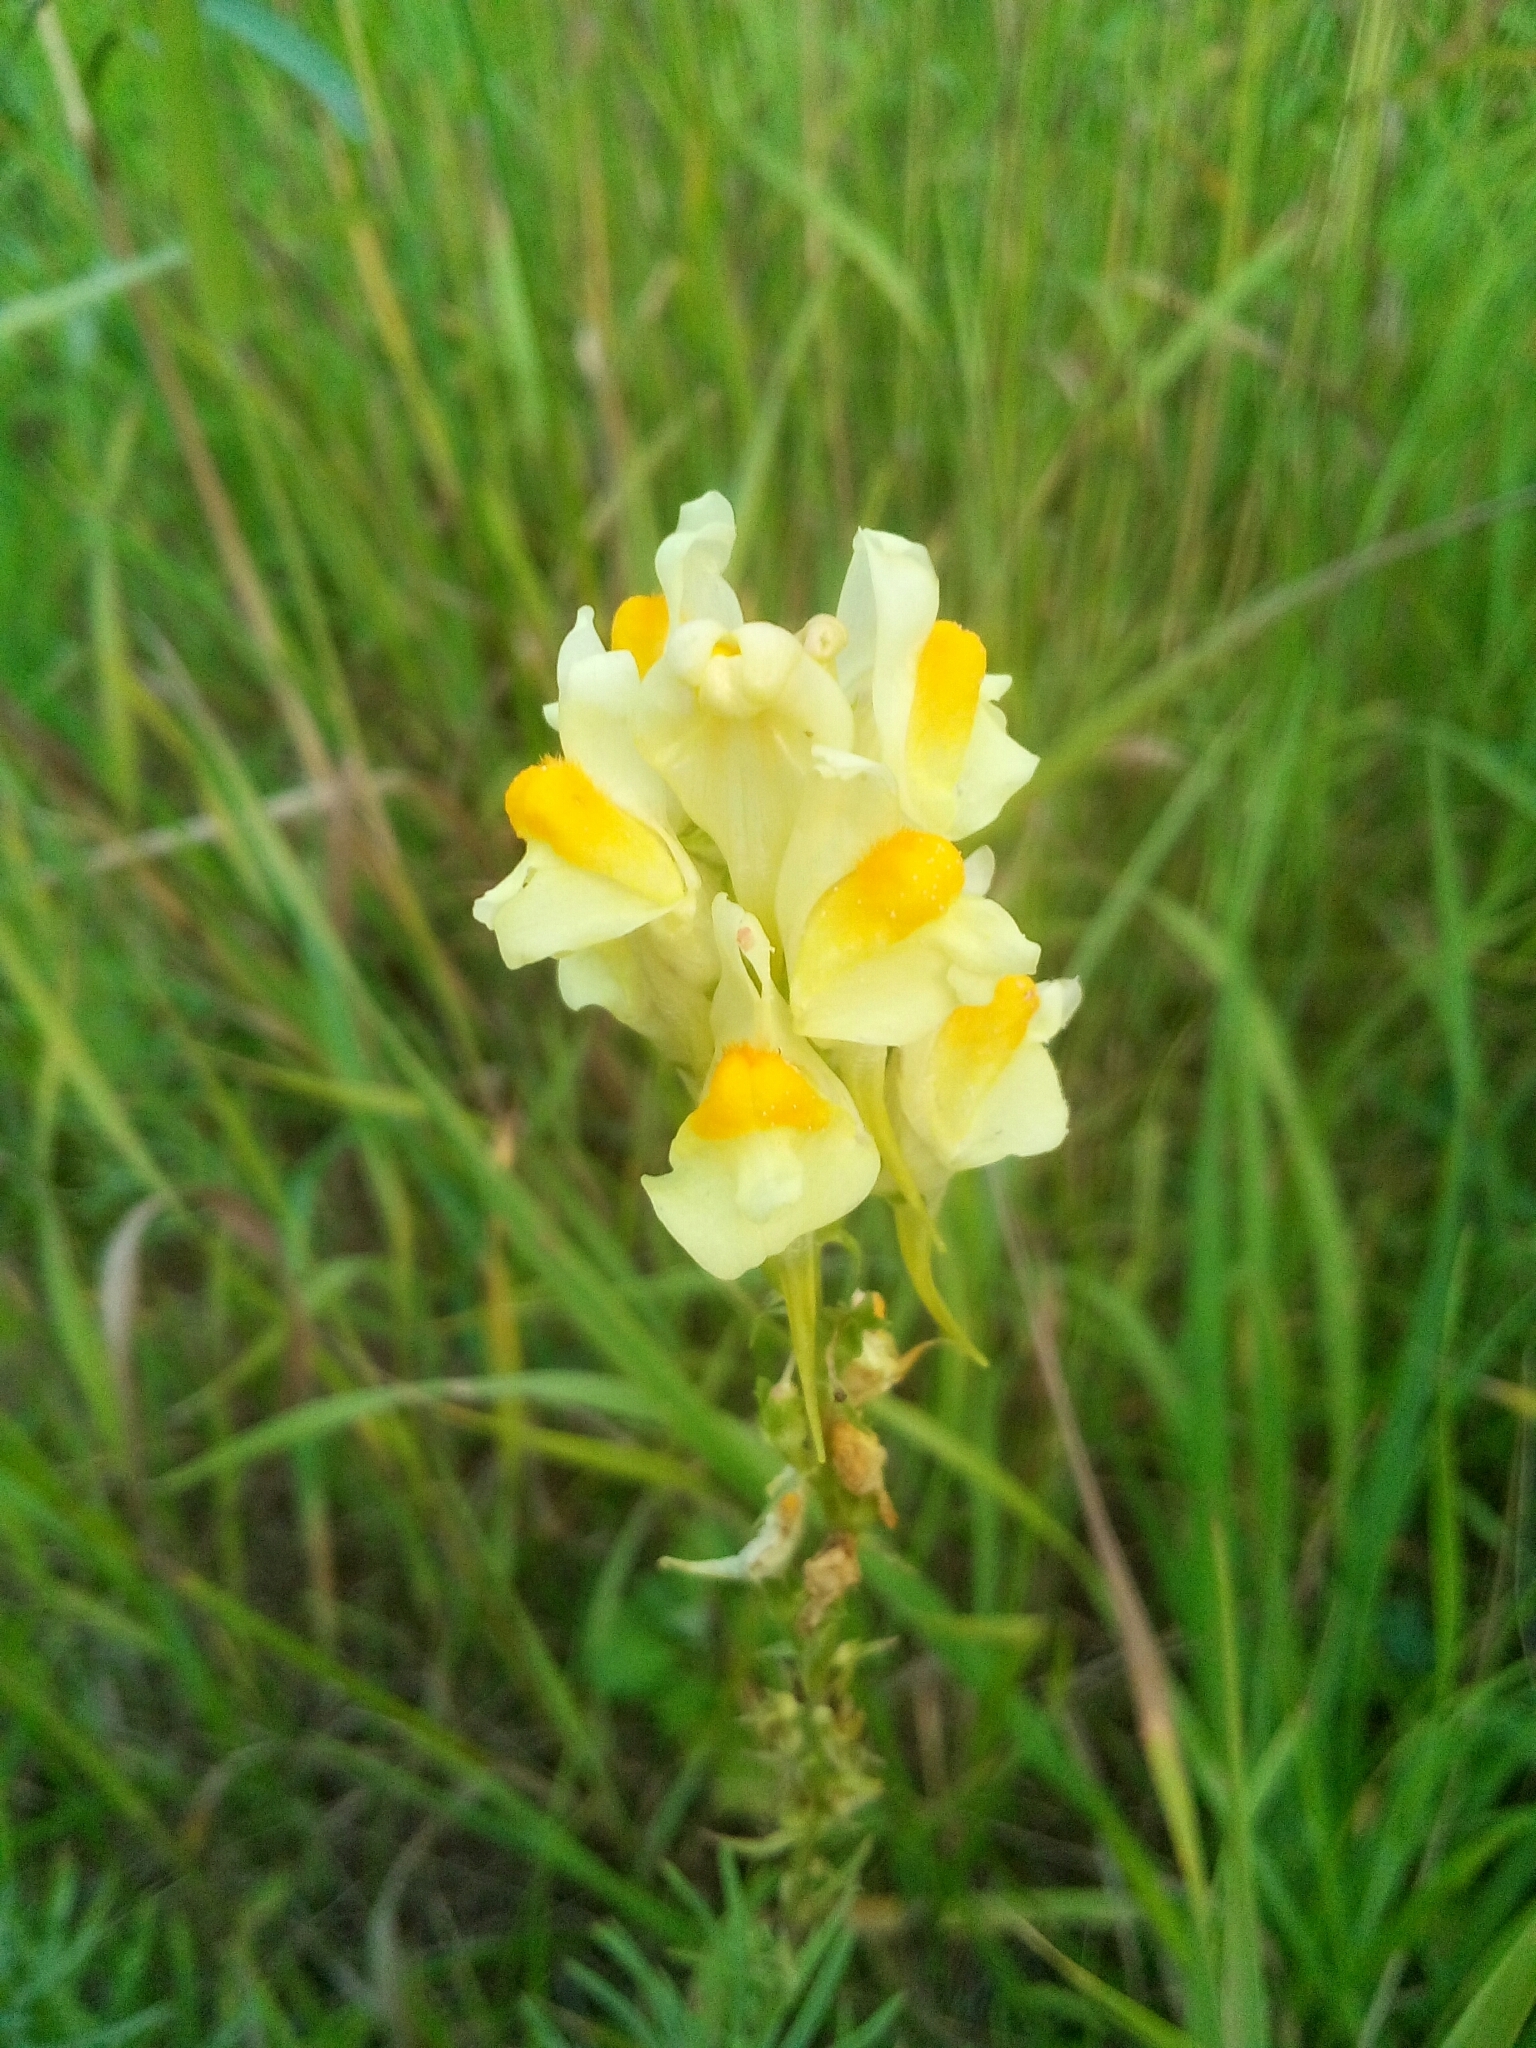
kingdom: Plantae
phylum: Tracheophyta
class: Magnoliopsida
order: Lamiales
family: Plantaginaceae
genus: Linaria
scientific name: Linaria vulgaris
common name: Butter and eggs
